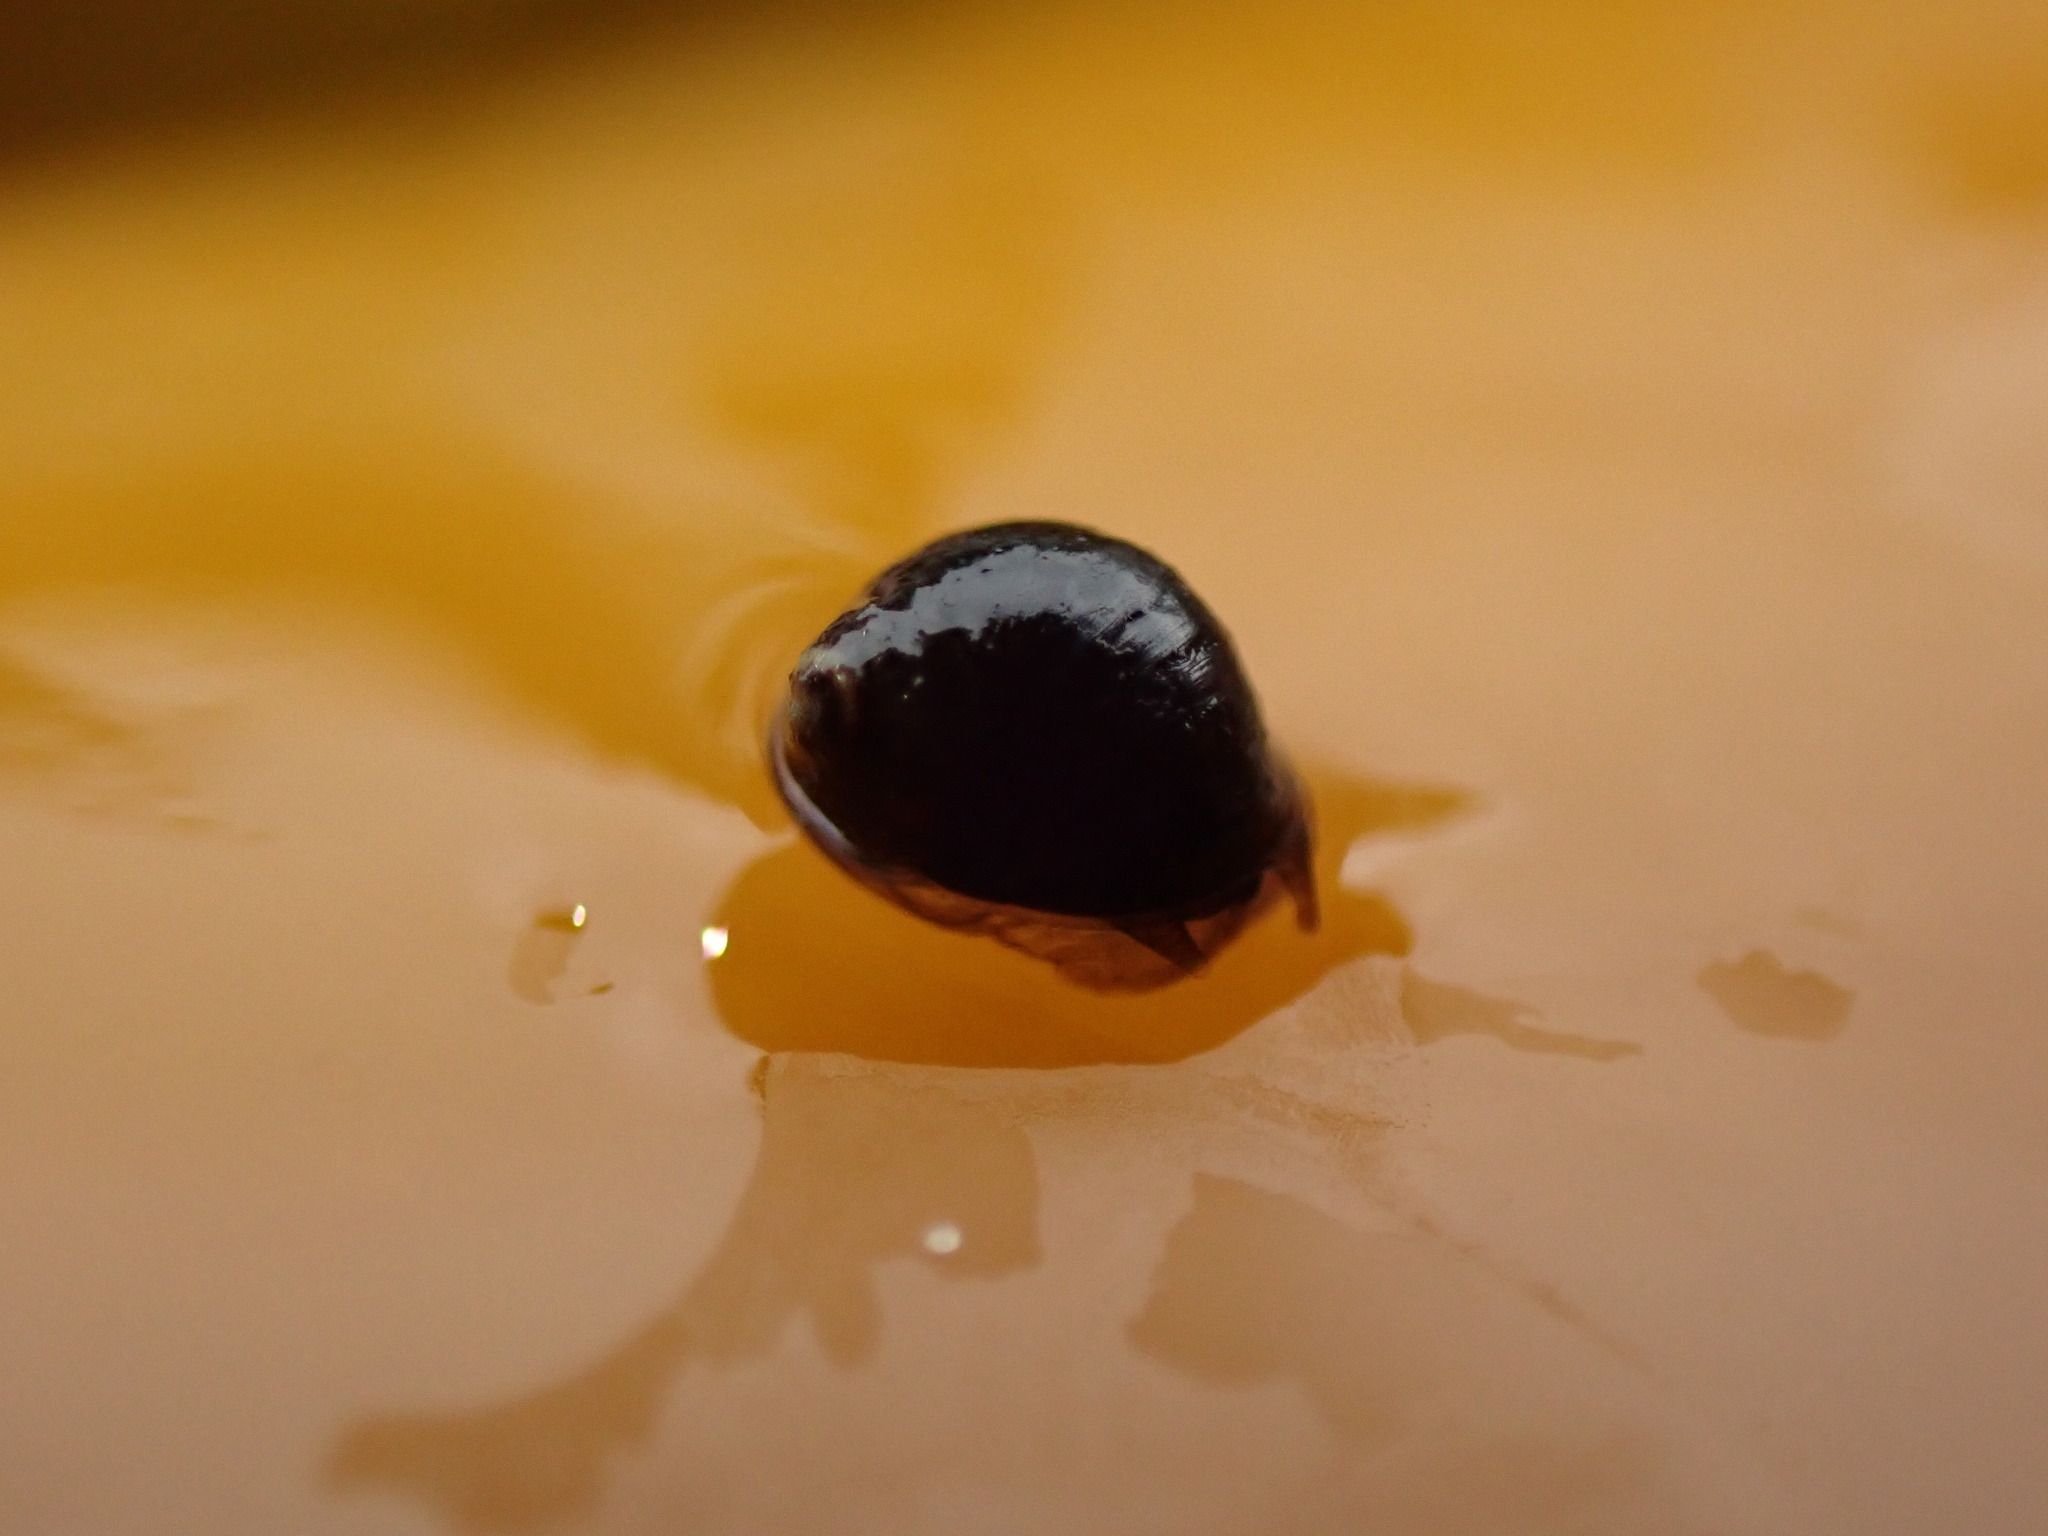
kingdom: Animalia
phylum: Mollusca
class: Gastropoda
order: Littorinimorpha
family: Littorinidae
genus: Austrolittorina
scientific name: Austrolittorina cincta
